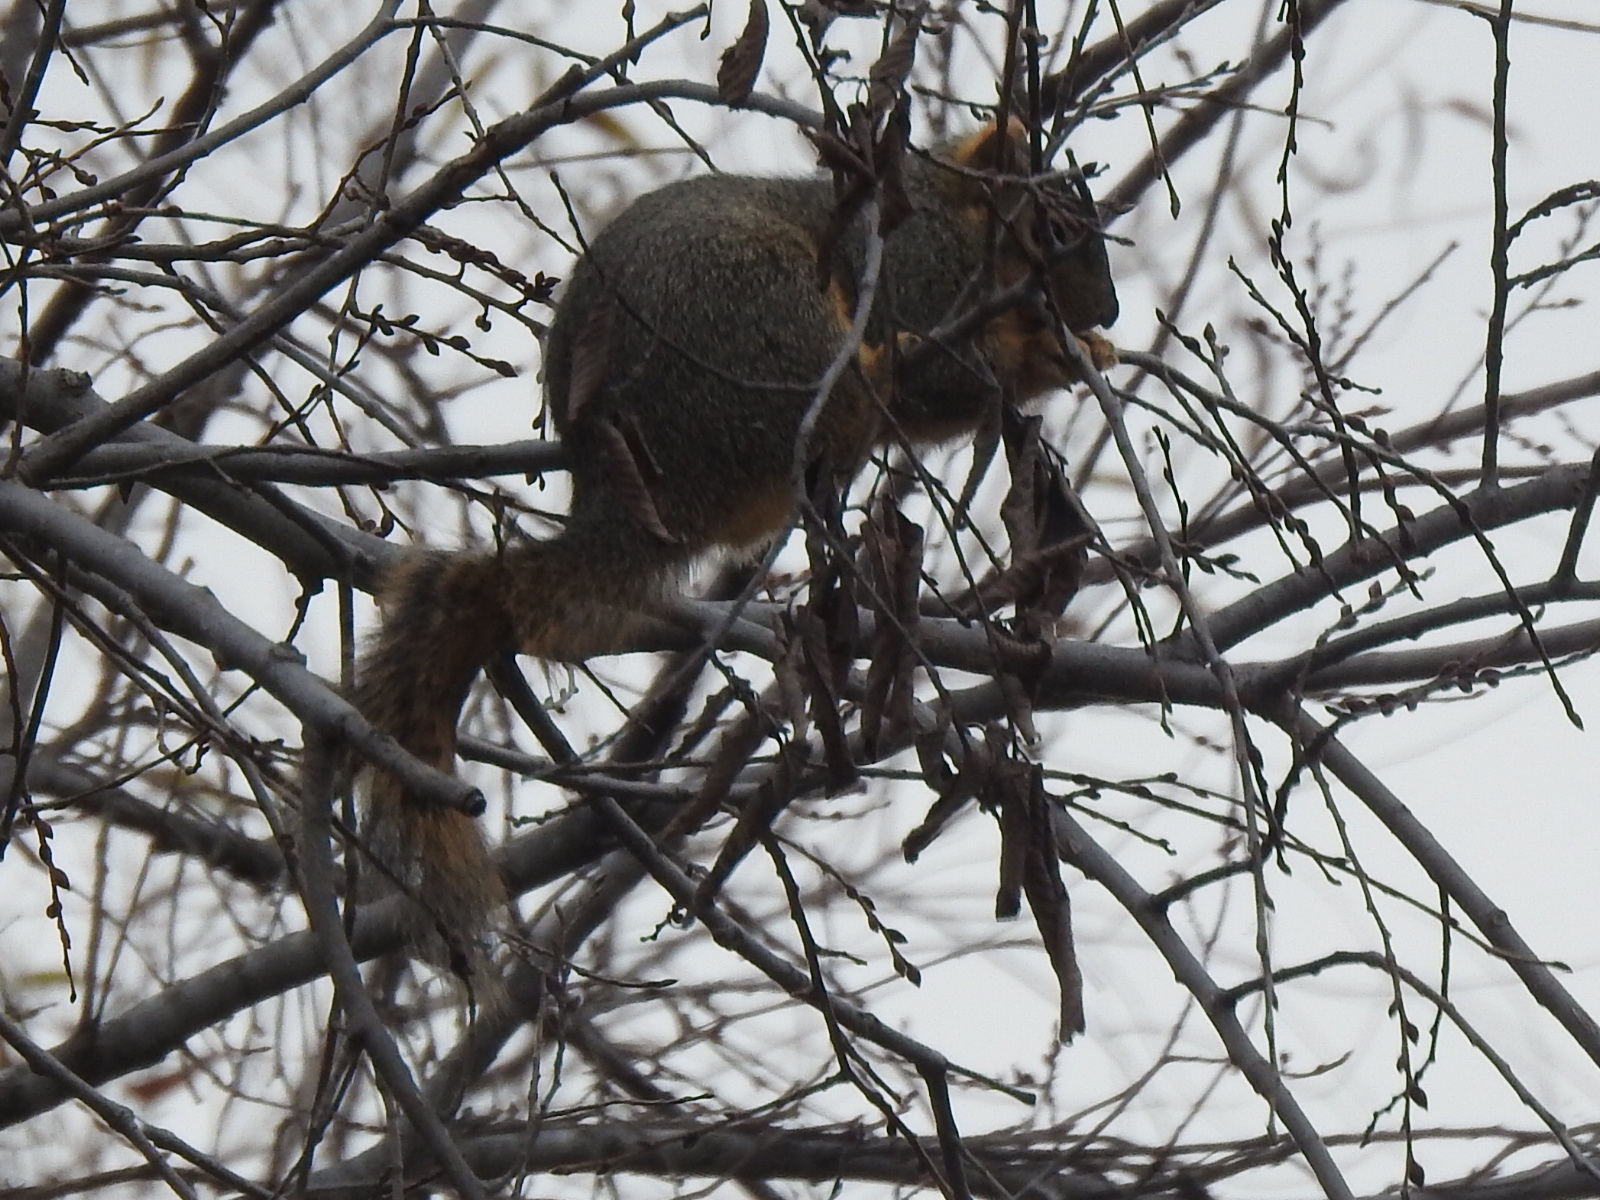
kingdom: Animalia
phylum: Chordata
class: Mammalia
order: Rodentia
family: Sciuridae
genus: Sciurus
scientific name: Sciurus niger
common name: Fox squirrel
